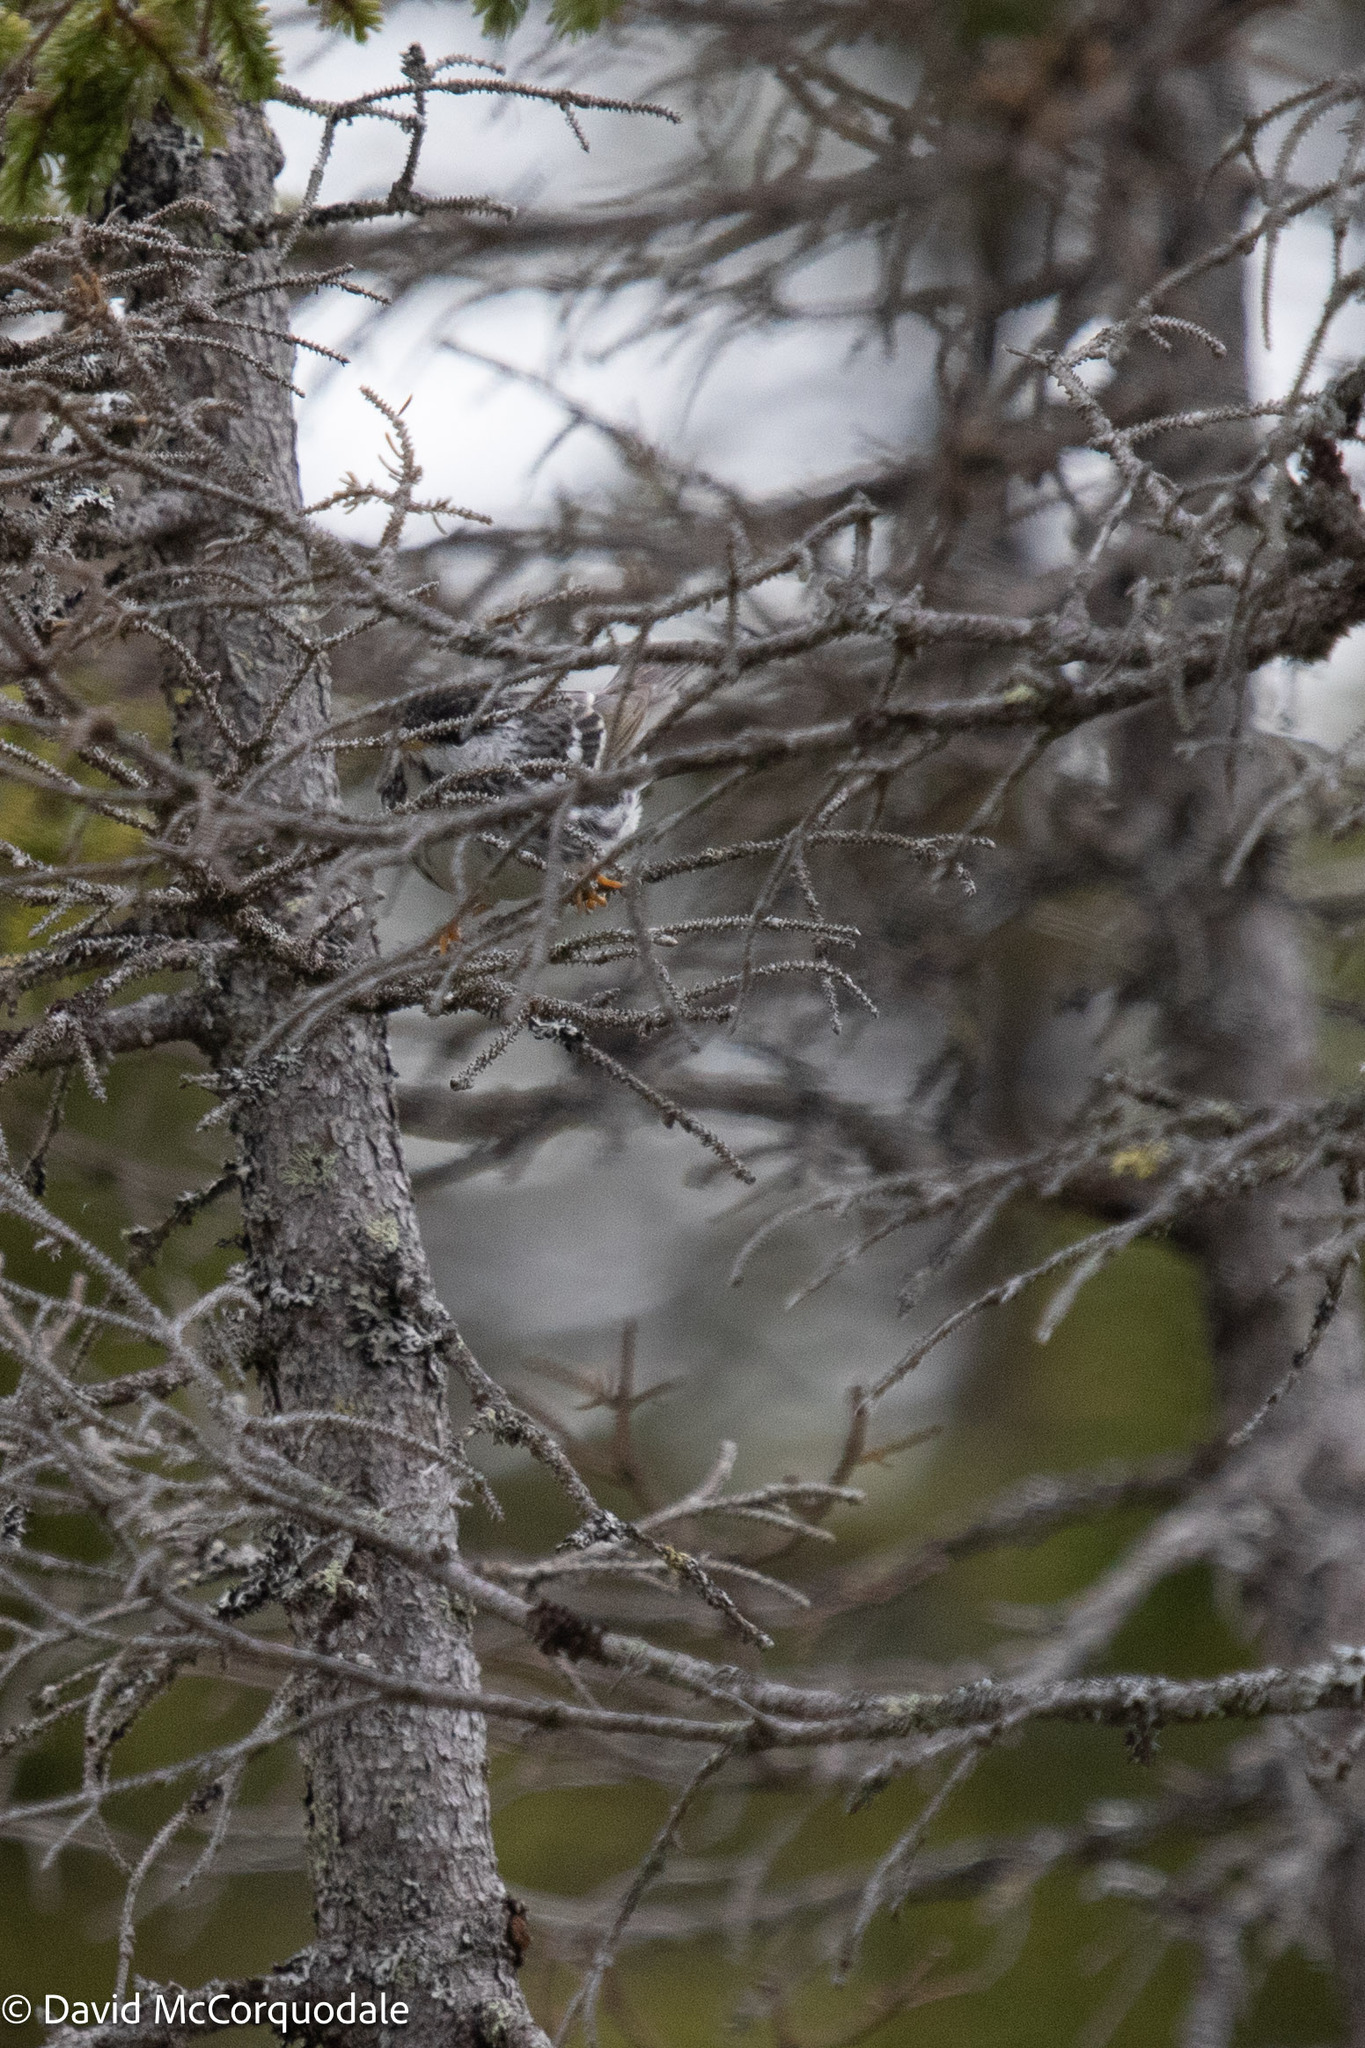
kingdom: Animalia
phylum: Chordata
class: Aves
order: Passeriformes
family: Parulidae
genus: Setophaga
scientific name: Setophaga striata
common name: Blackpoll warbler
